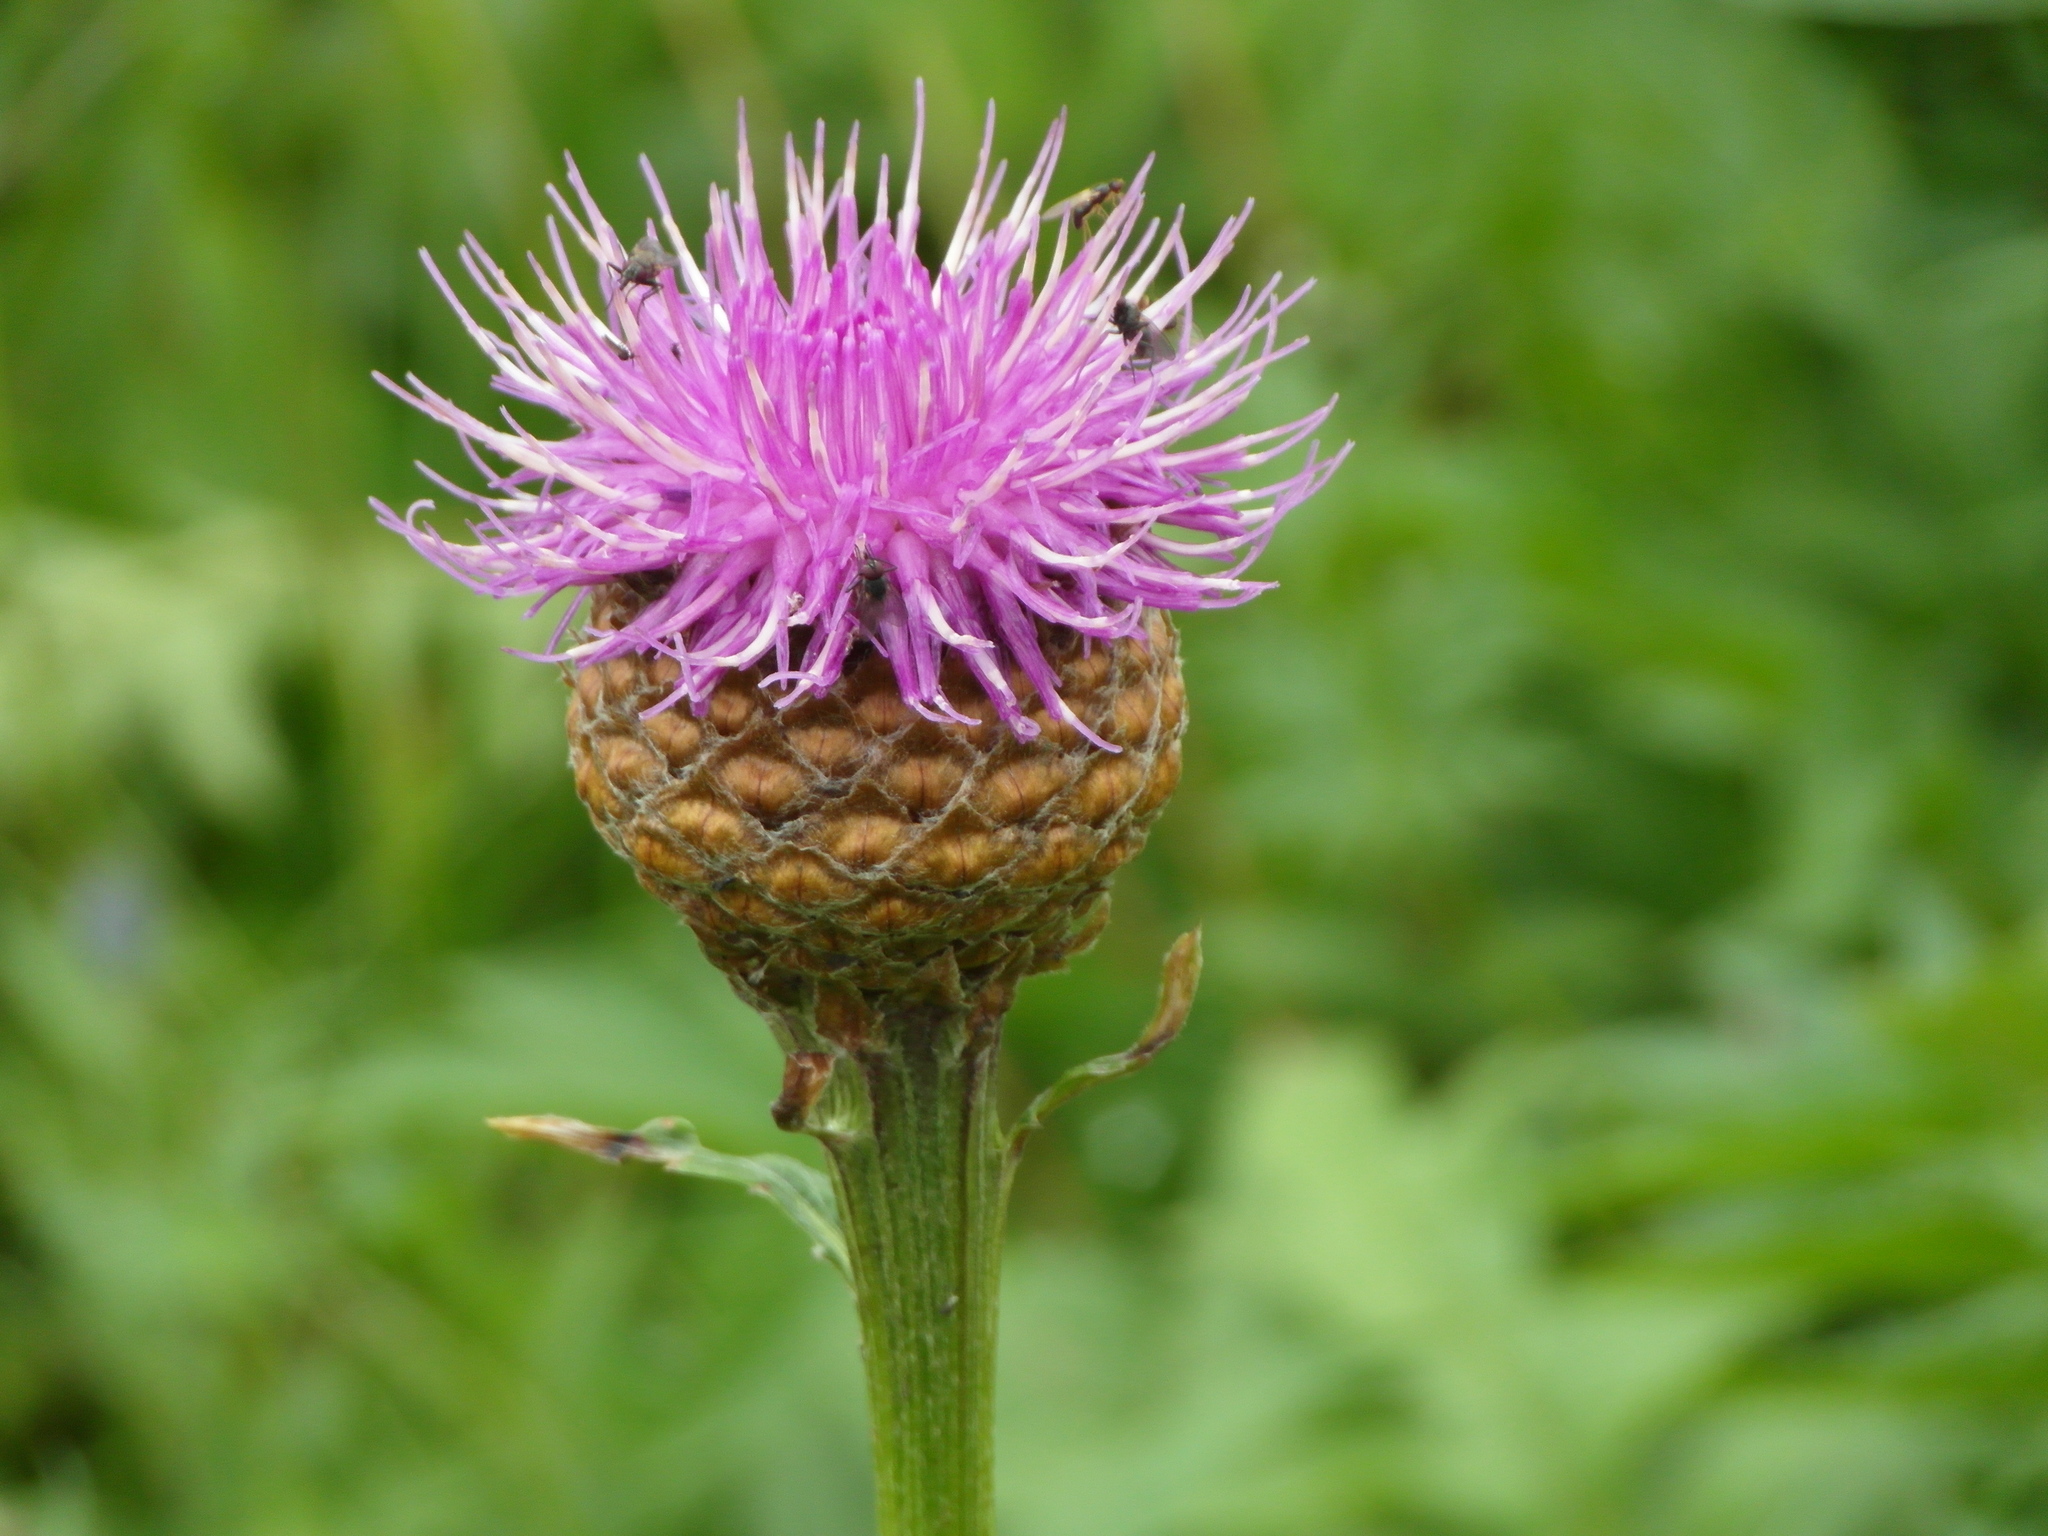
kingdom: Plantae
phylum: Tracheophyta
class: Magnoliopsida
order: Asterales
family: Asteraceae
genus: Leuzea
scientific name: Leuzea carthamoides
